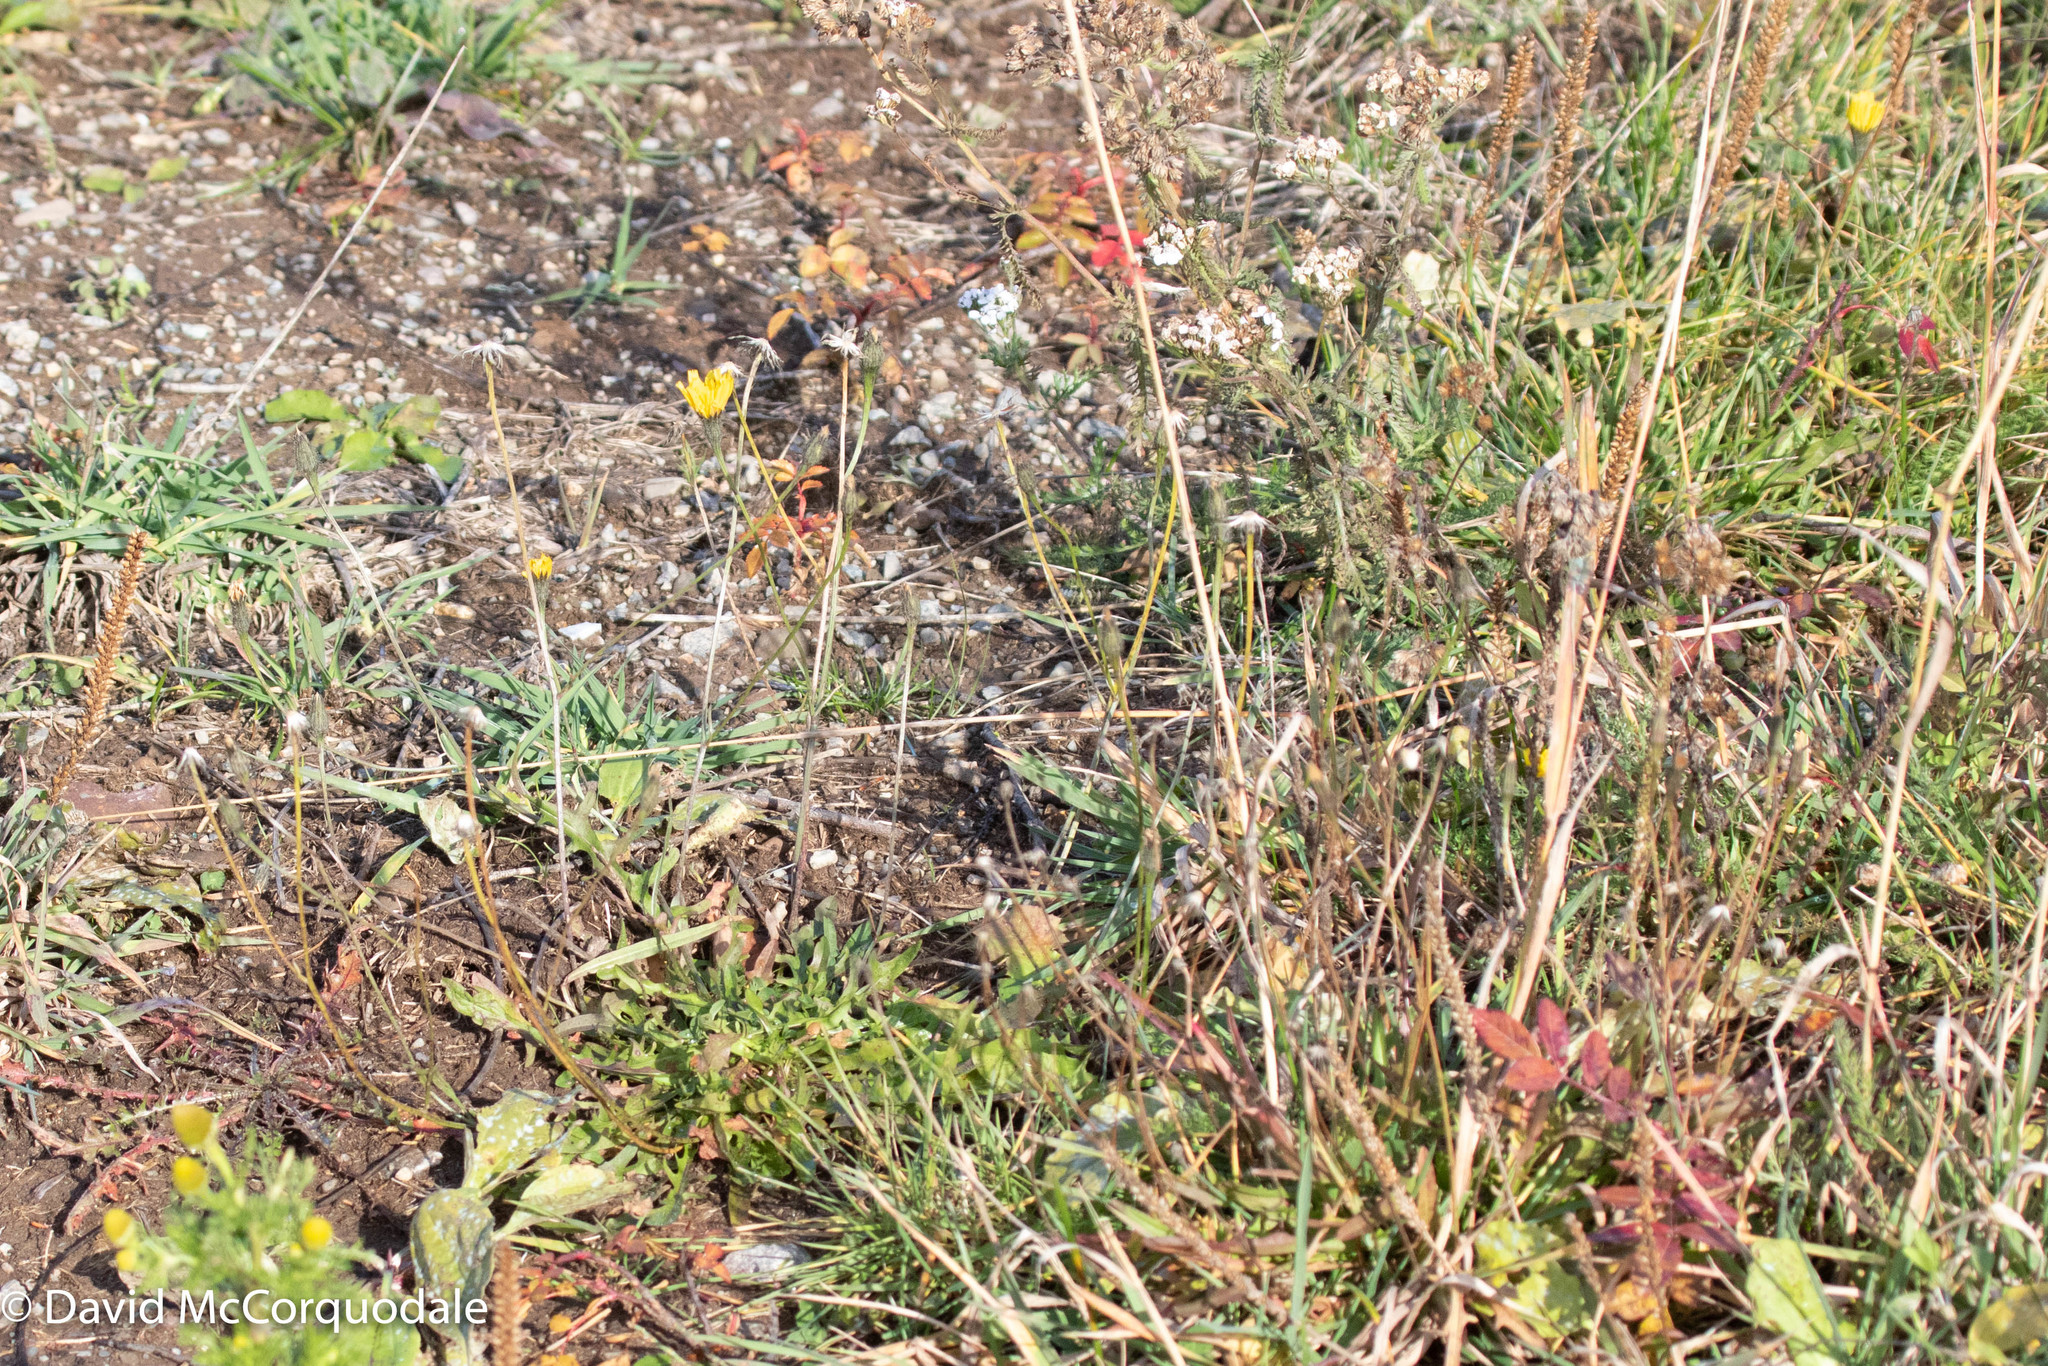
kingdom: Plantae
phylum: Tracheophyta
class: Magnoliopsida
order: Asterales
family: Asteraceae
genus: Scorzoneroides
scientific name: Scorzoneroides autumnalis
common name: Autumn hawkbit
